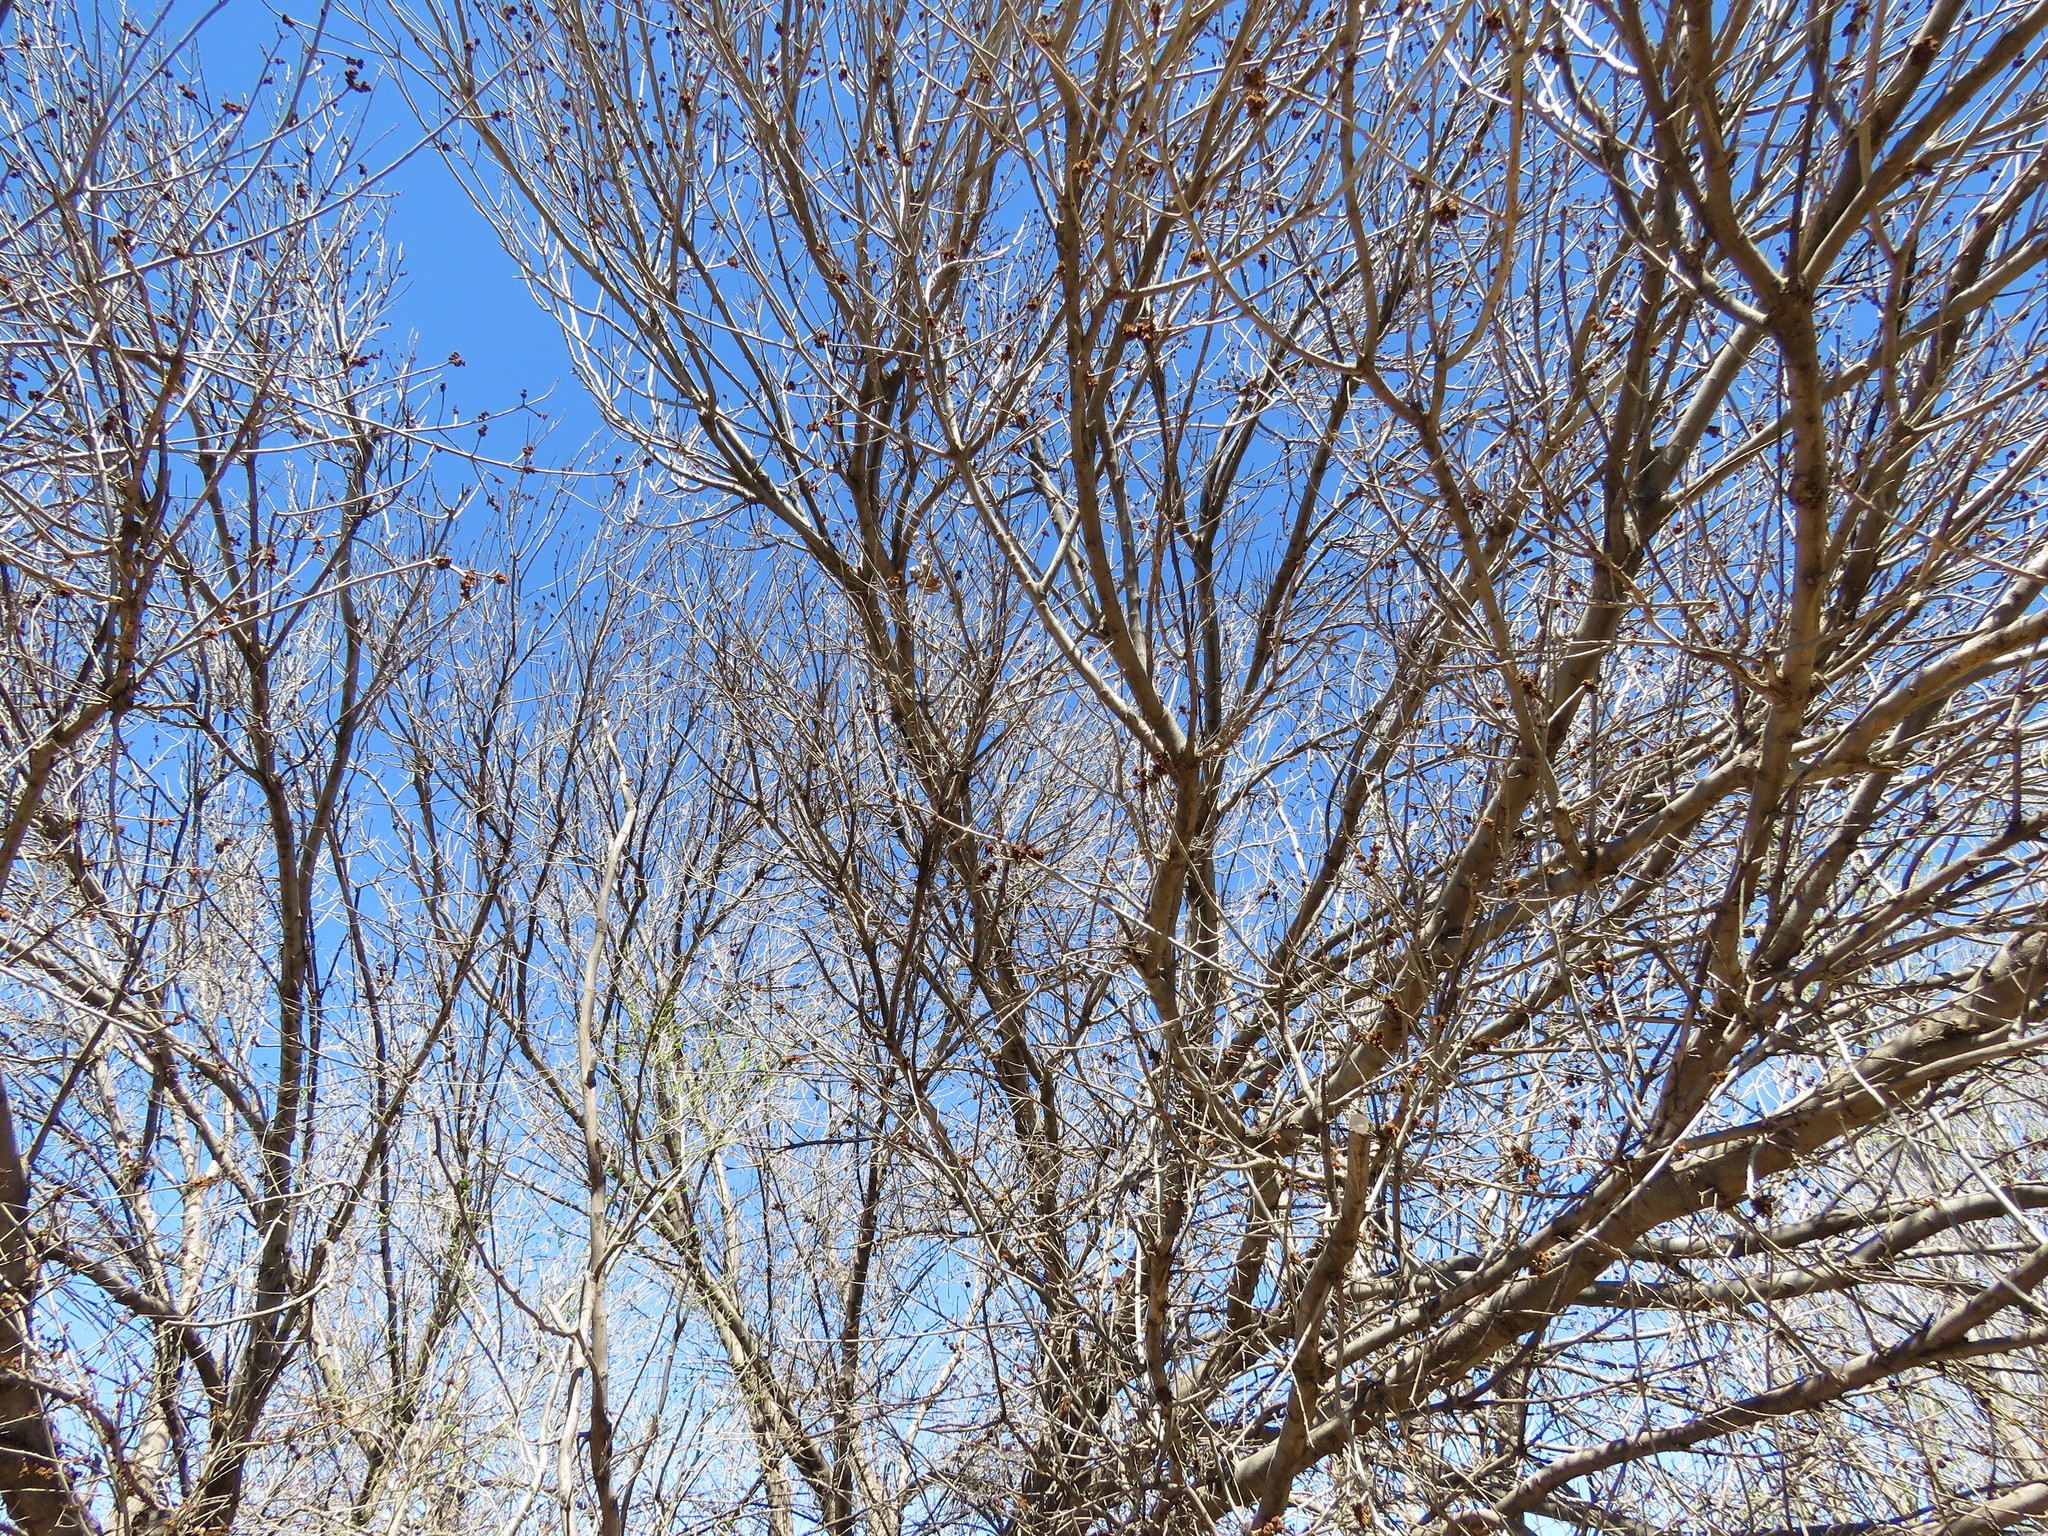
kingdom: Plantae
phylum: Tracheophyta
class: Magnoliopsida
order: Lamiales
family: Oleaceae
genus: Fraxinus
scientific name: Fraxinus velutina
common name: Arizon ash
